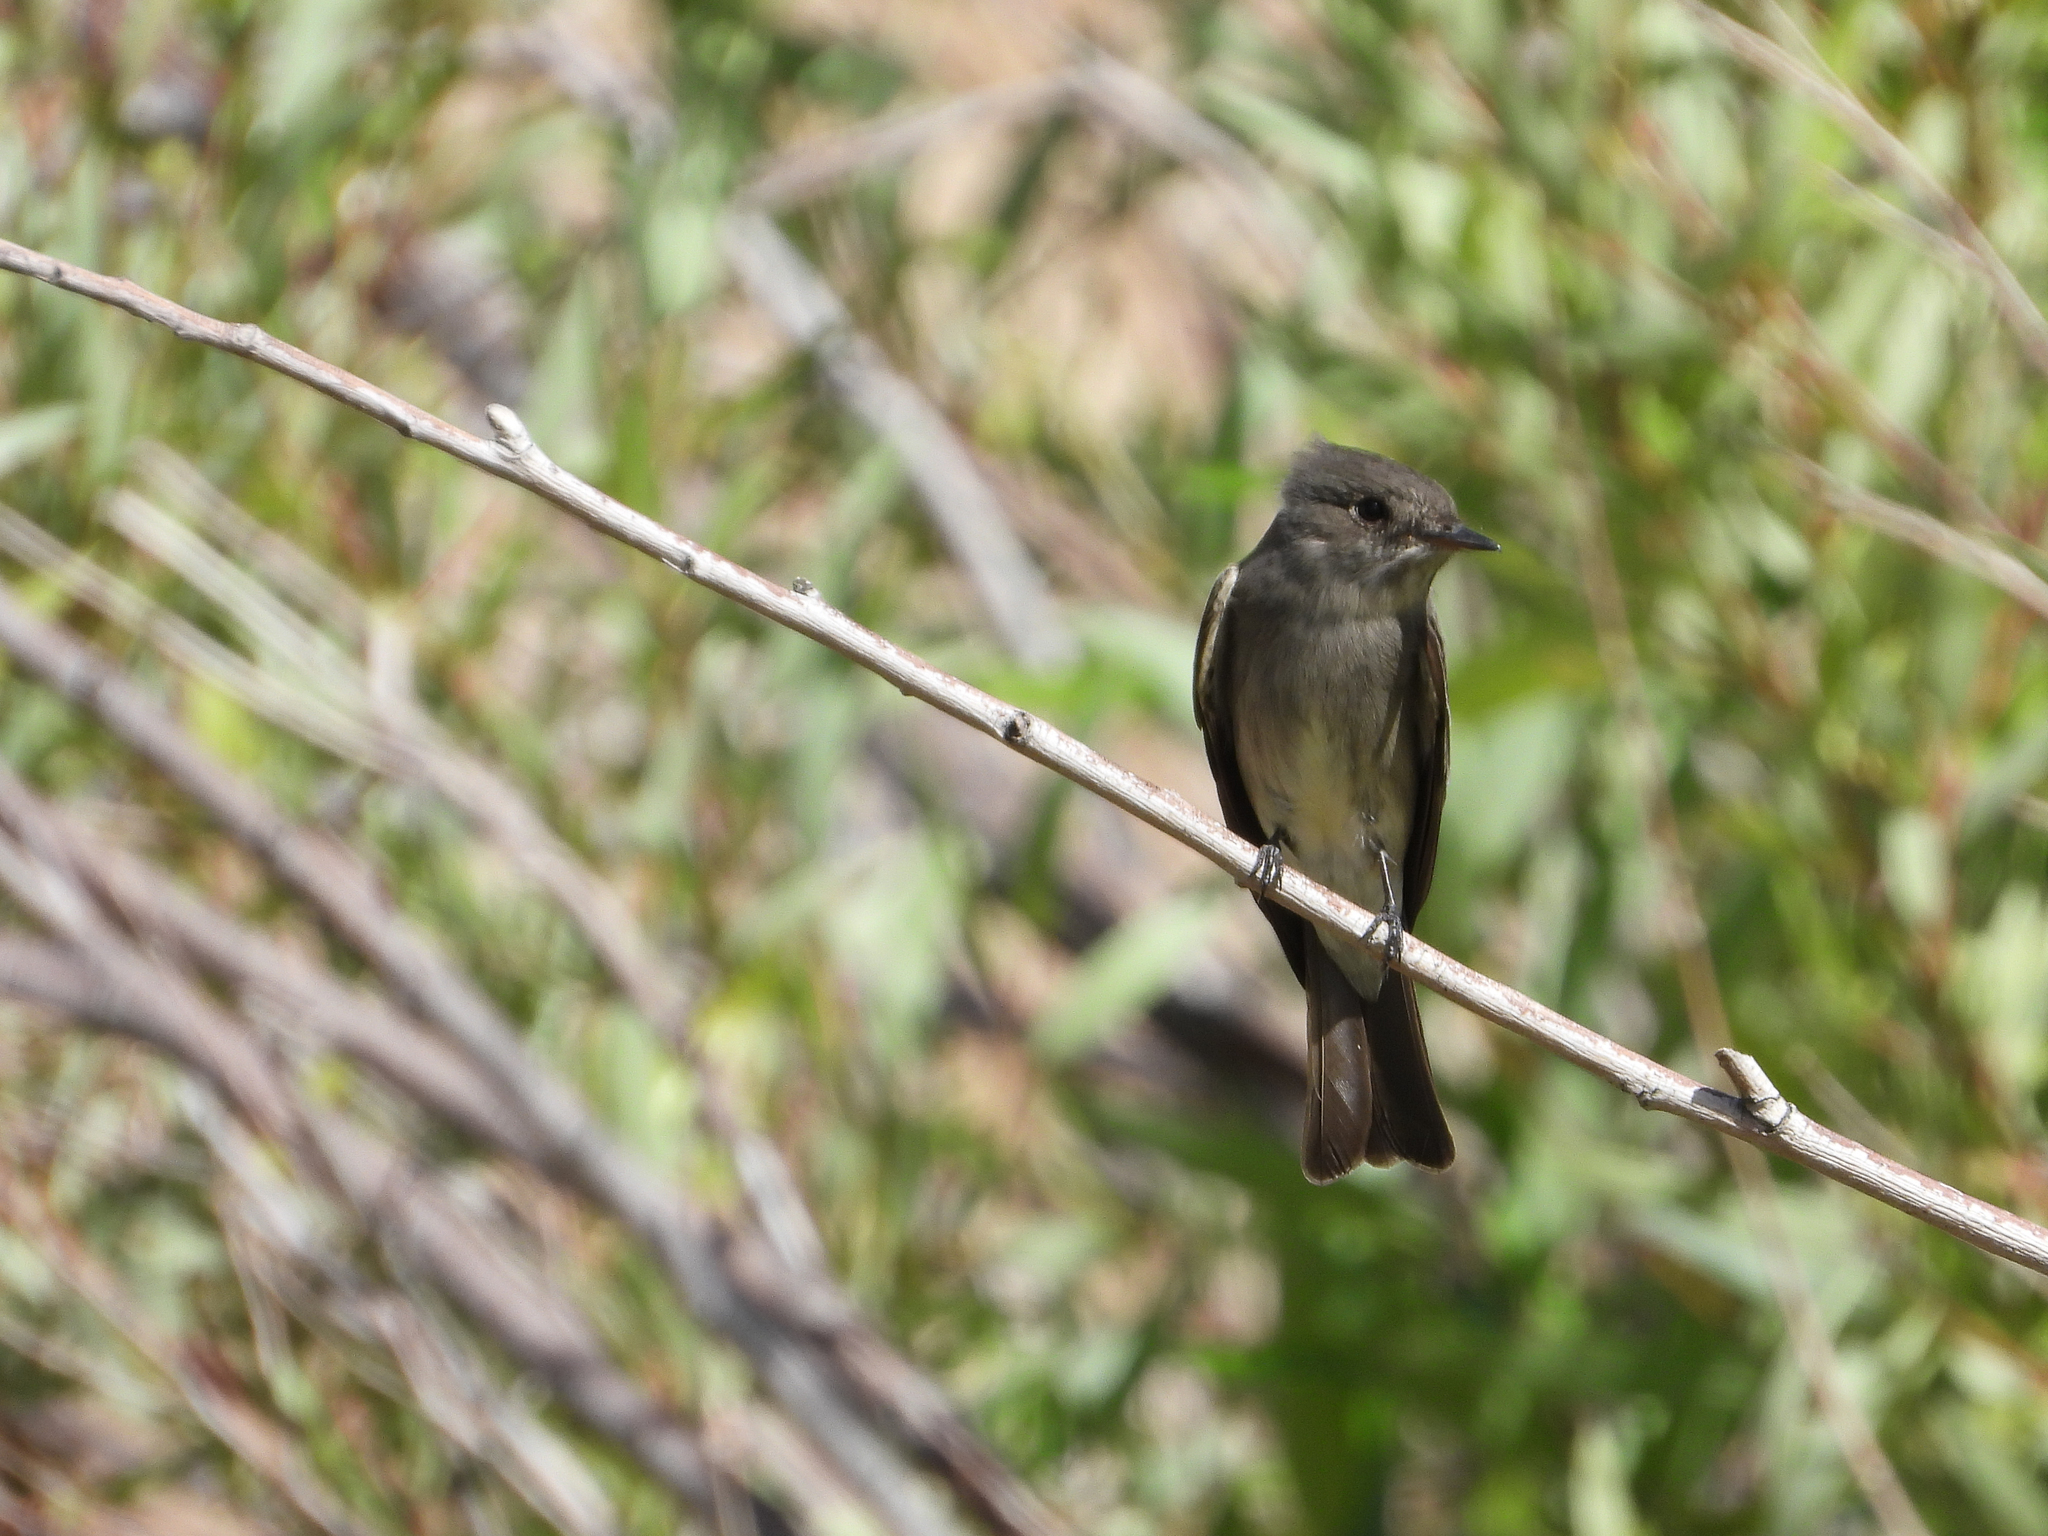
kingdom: Animalia
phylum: Chordata
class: Aves
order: Passeriformes
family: Tyrannidae
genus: Contopus
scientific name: Contopus sordidulus
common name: Western wood-pewee
